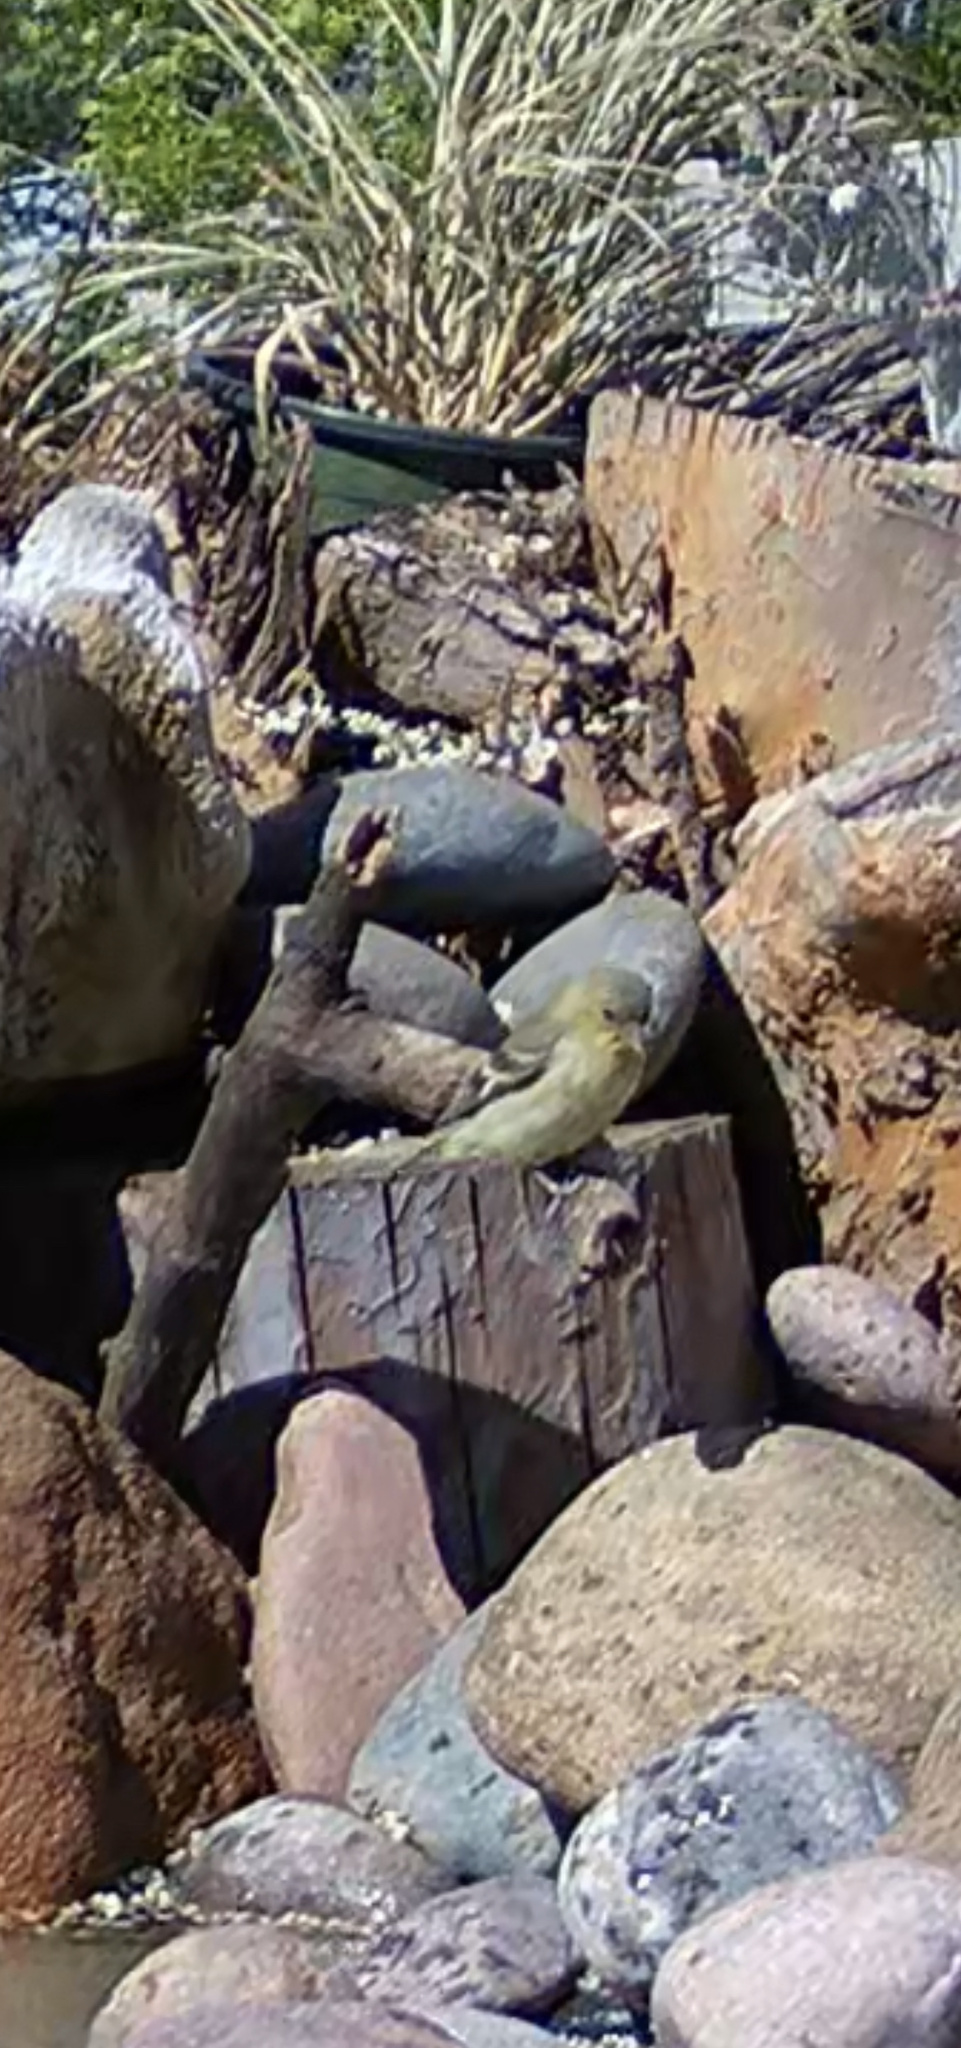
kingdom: Animalia
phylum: Chordata
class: Aves
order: Passeriformes
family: Fringillidae
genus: Spinus
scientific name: Spinus psaltria
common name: Lesser goldfinch
